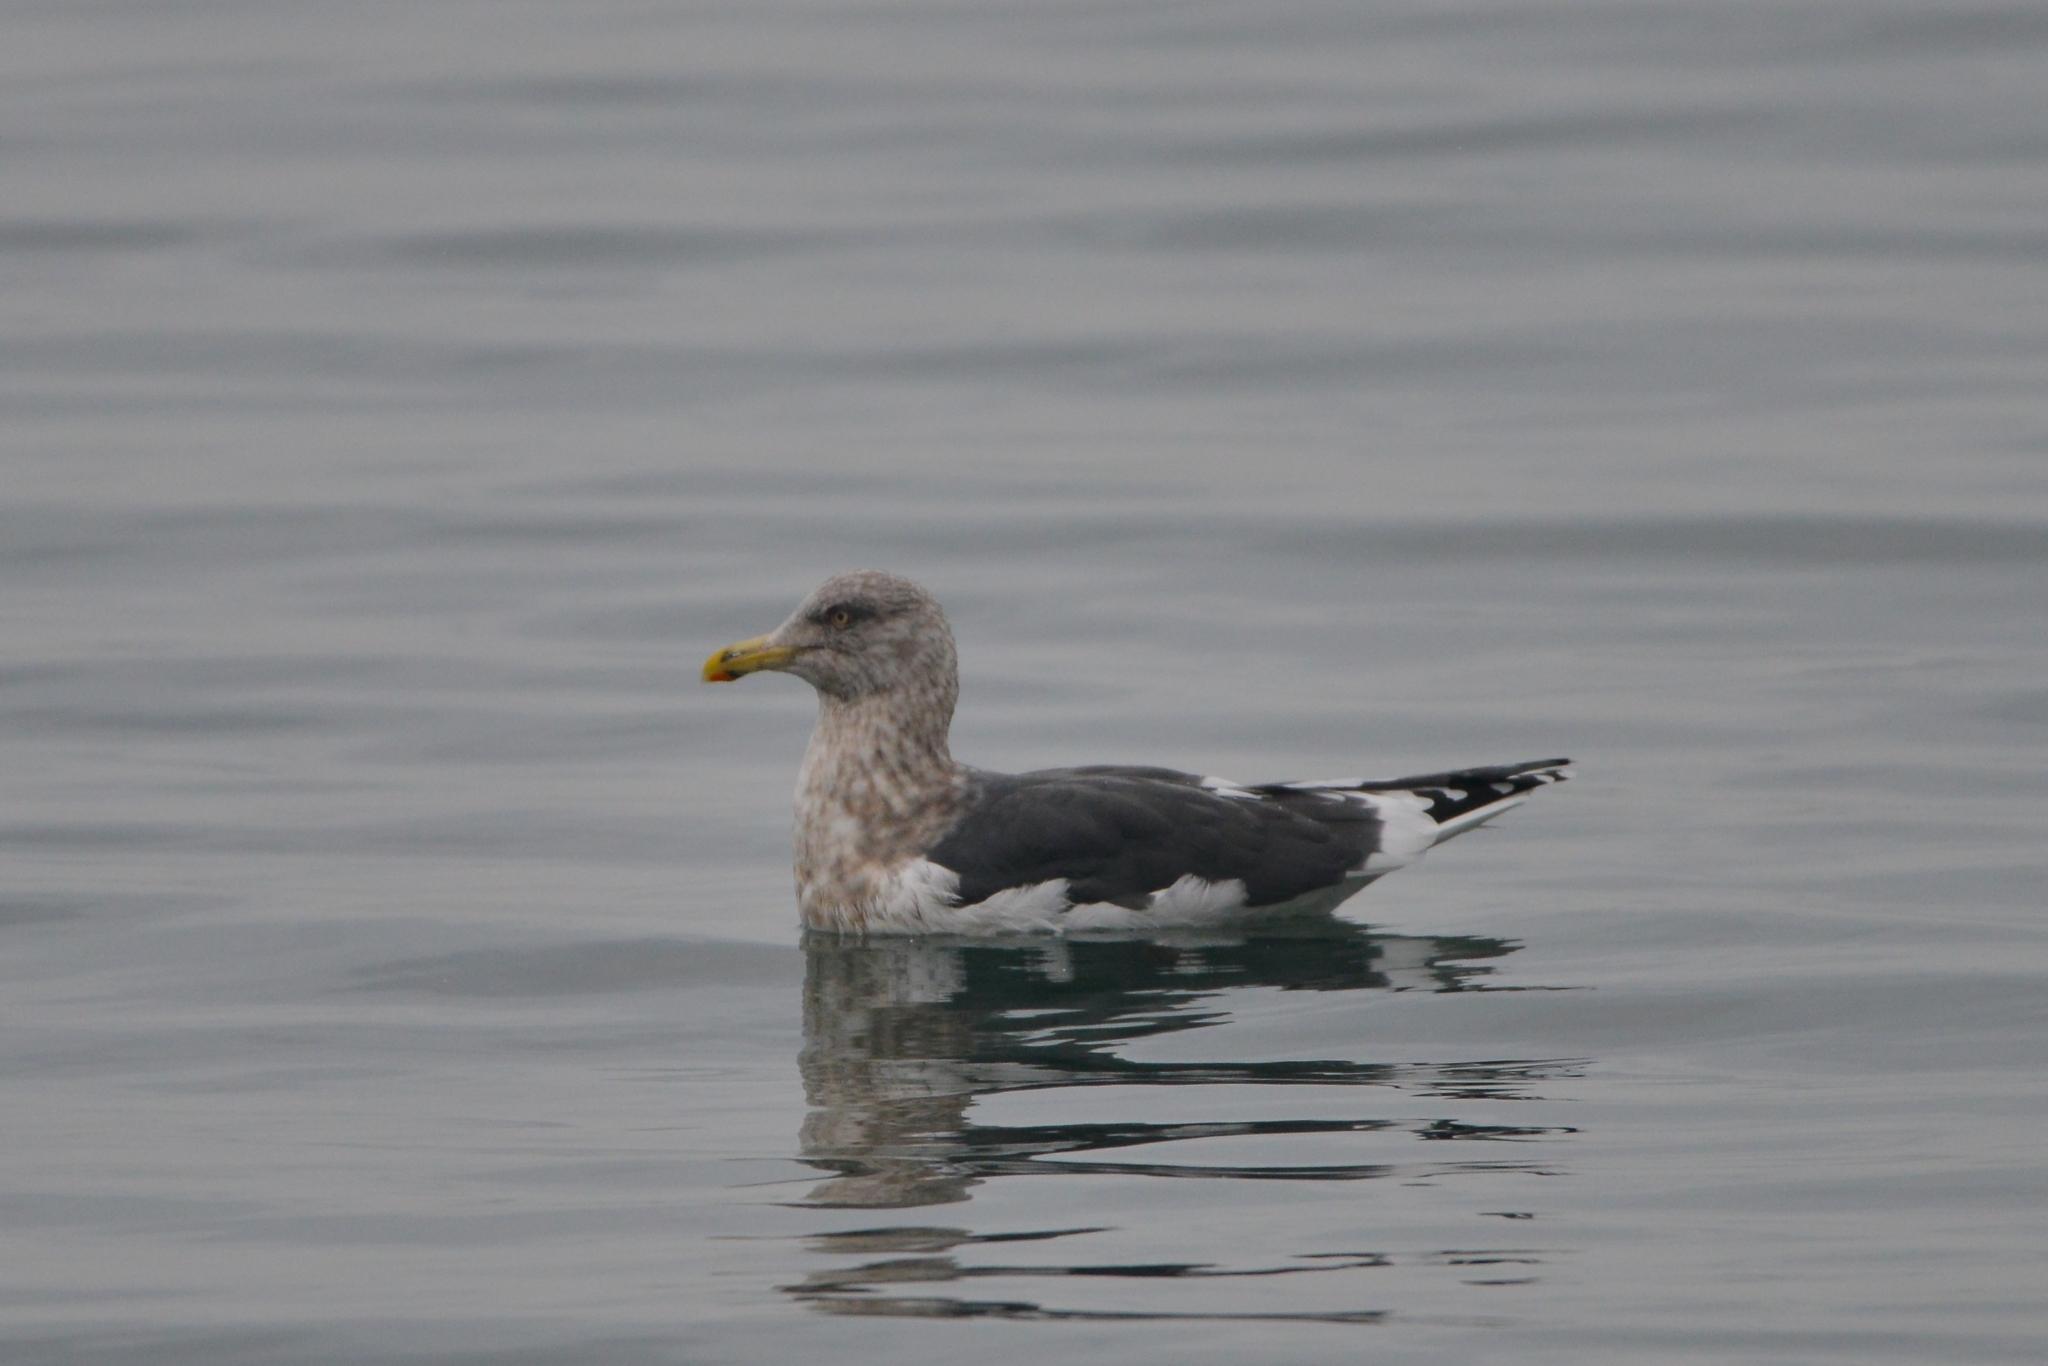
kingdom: Animalia
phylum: Chordata
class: Aves
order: Charadriiformes
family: Laridae
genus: Larus
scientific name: Larus schistisagus
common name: Slaty-backed gull
